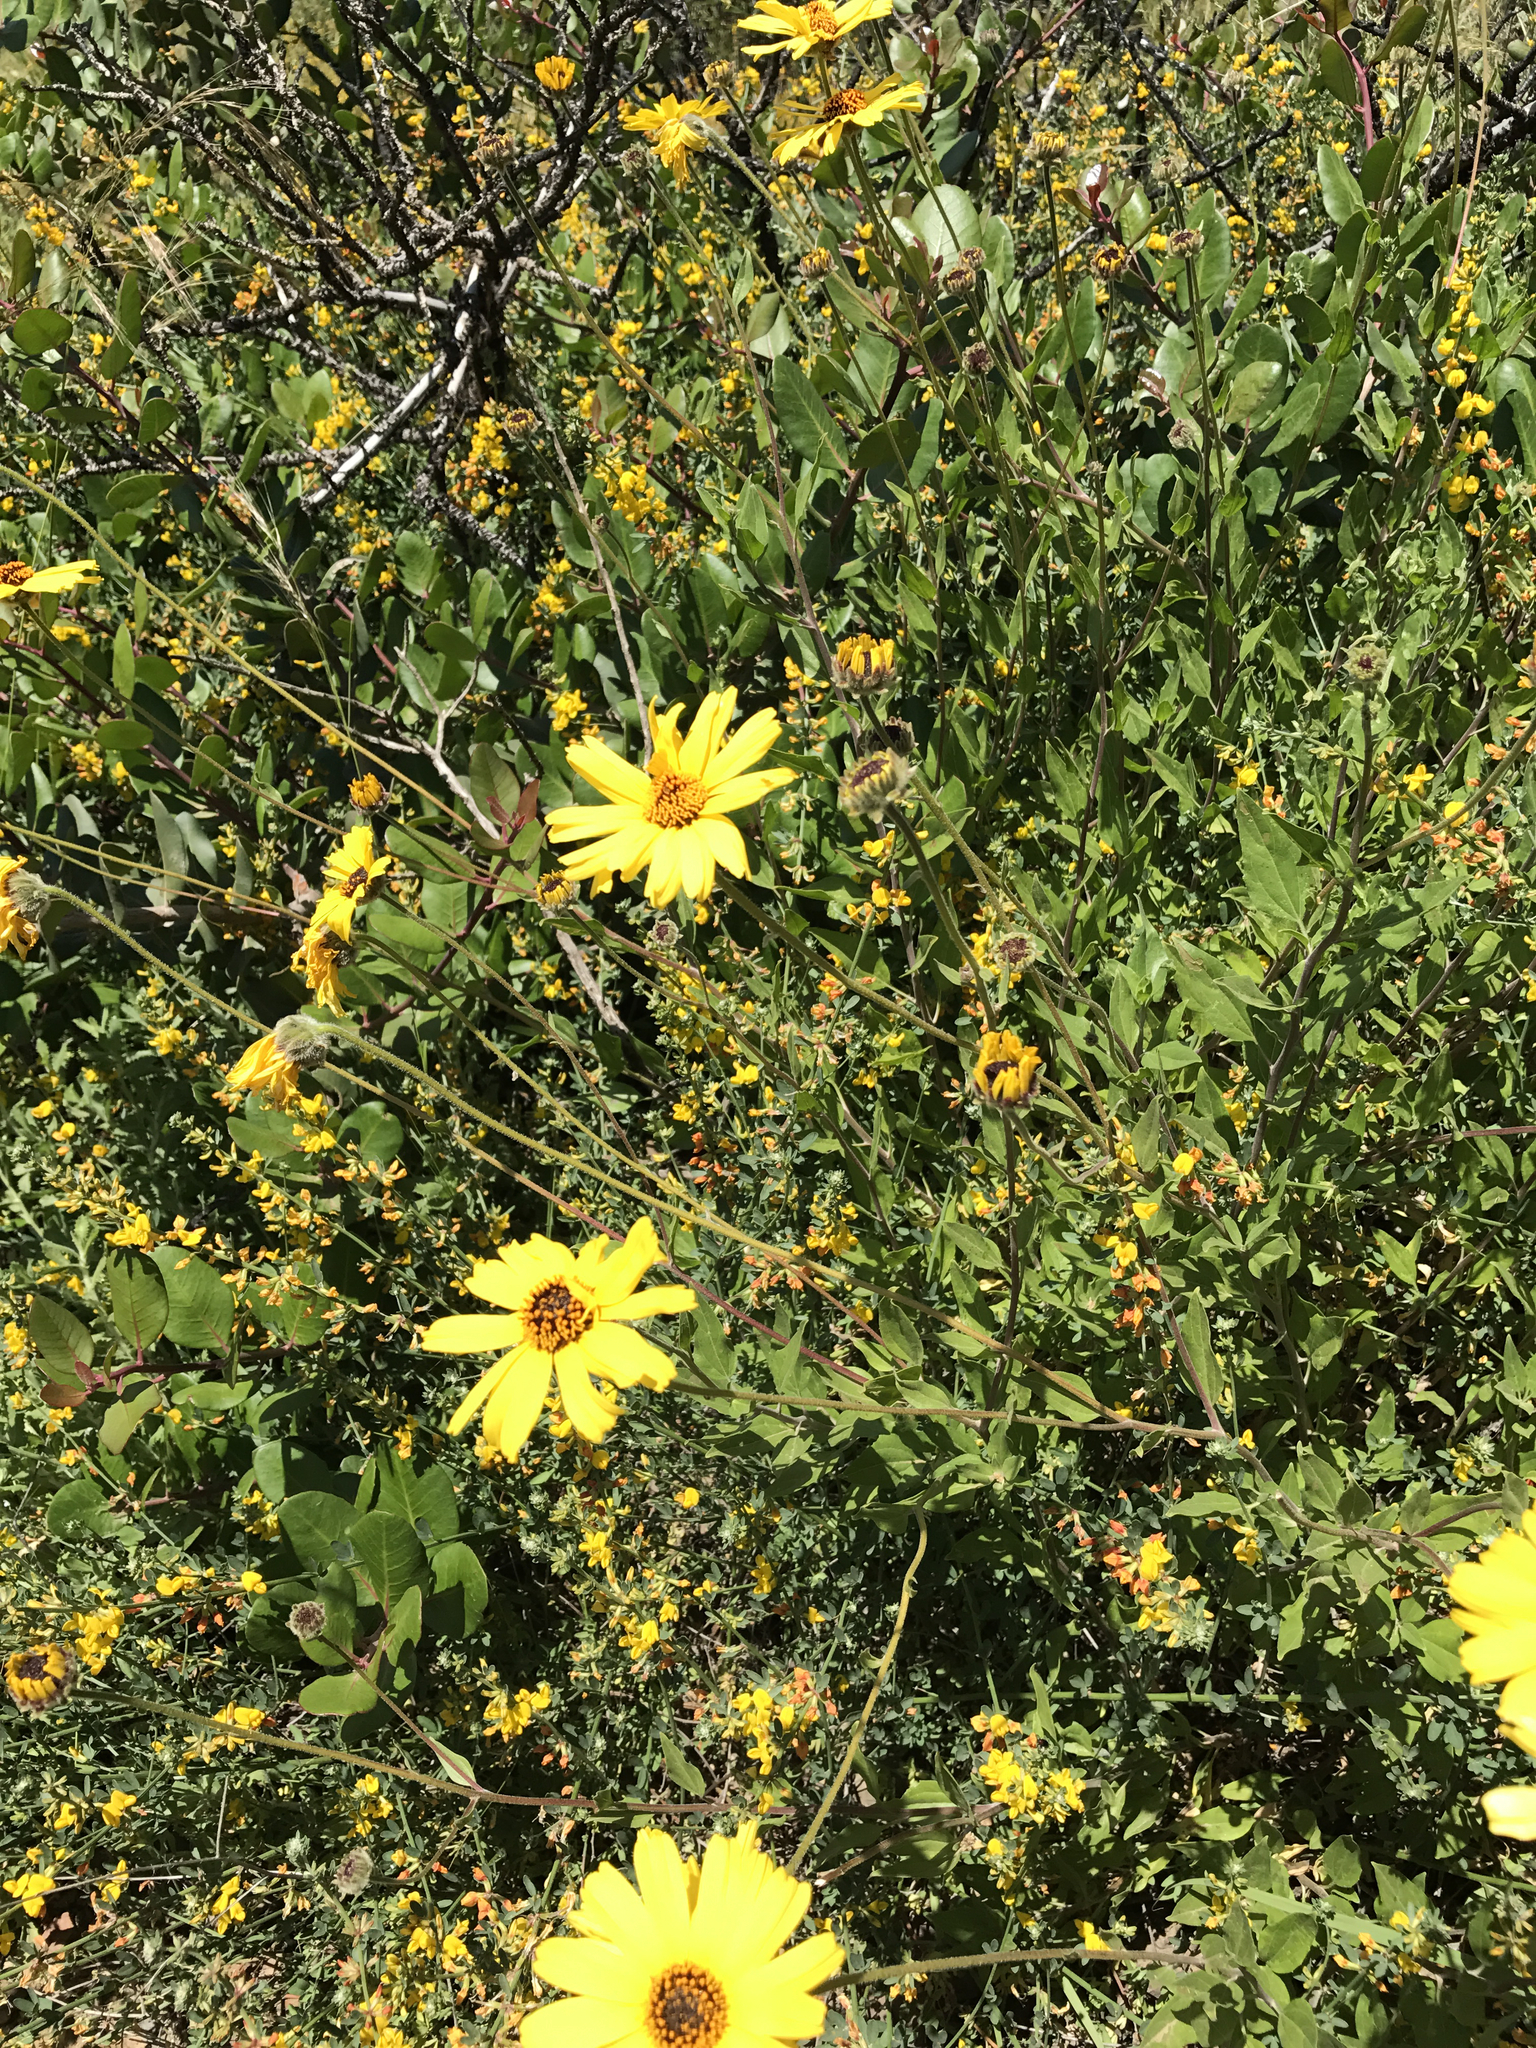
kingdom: Plantae
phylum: Tracheophyta
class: Magnoliopsida
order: Asterales
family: Asteraceae
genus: Encelia
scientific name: Encelia californica
